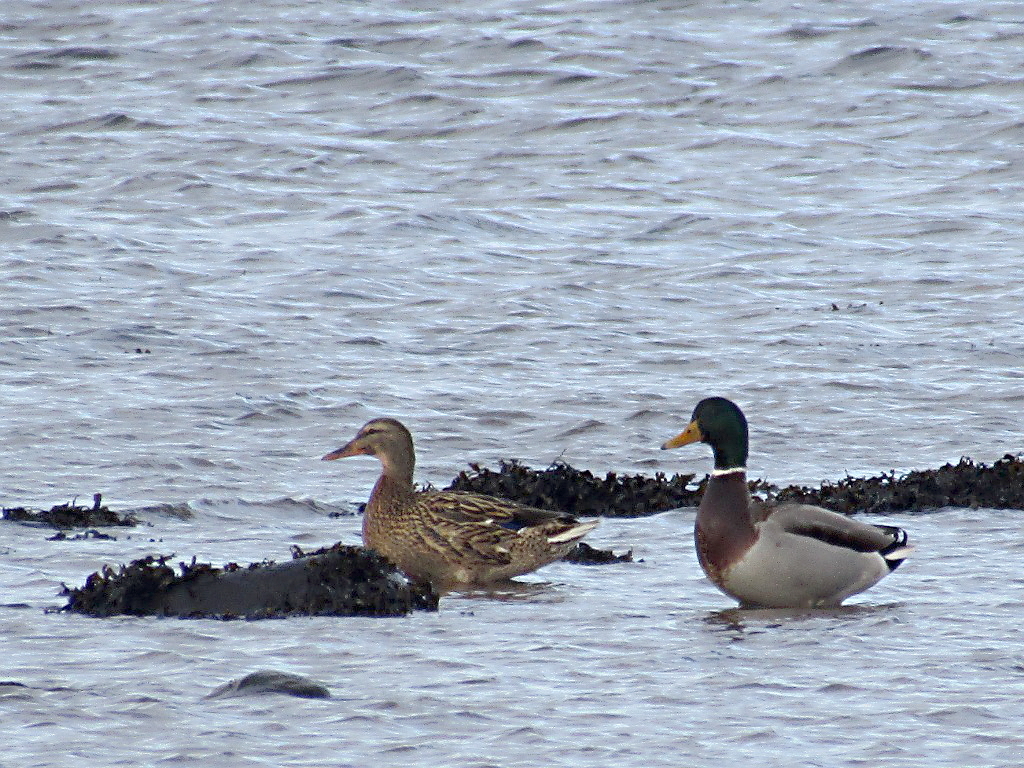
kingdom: Animalia
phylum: Chordata
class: Aves
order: Anseriformes
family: Anatidae
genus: Anas
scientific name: Anas platyrhynchos
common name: Mallard
